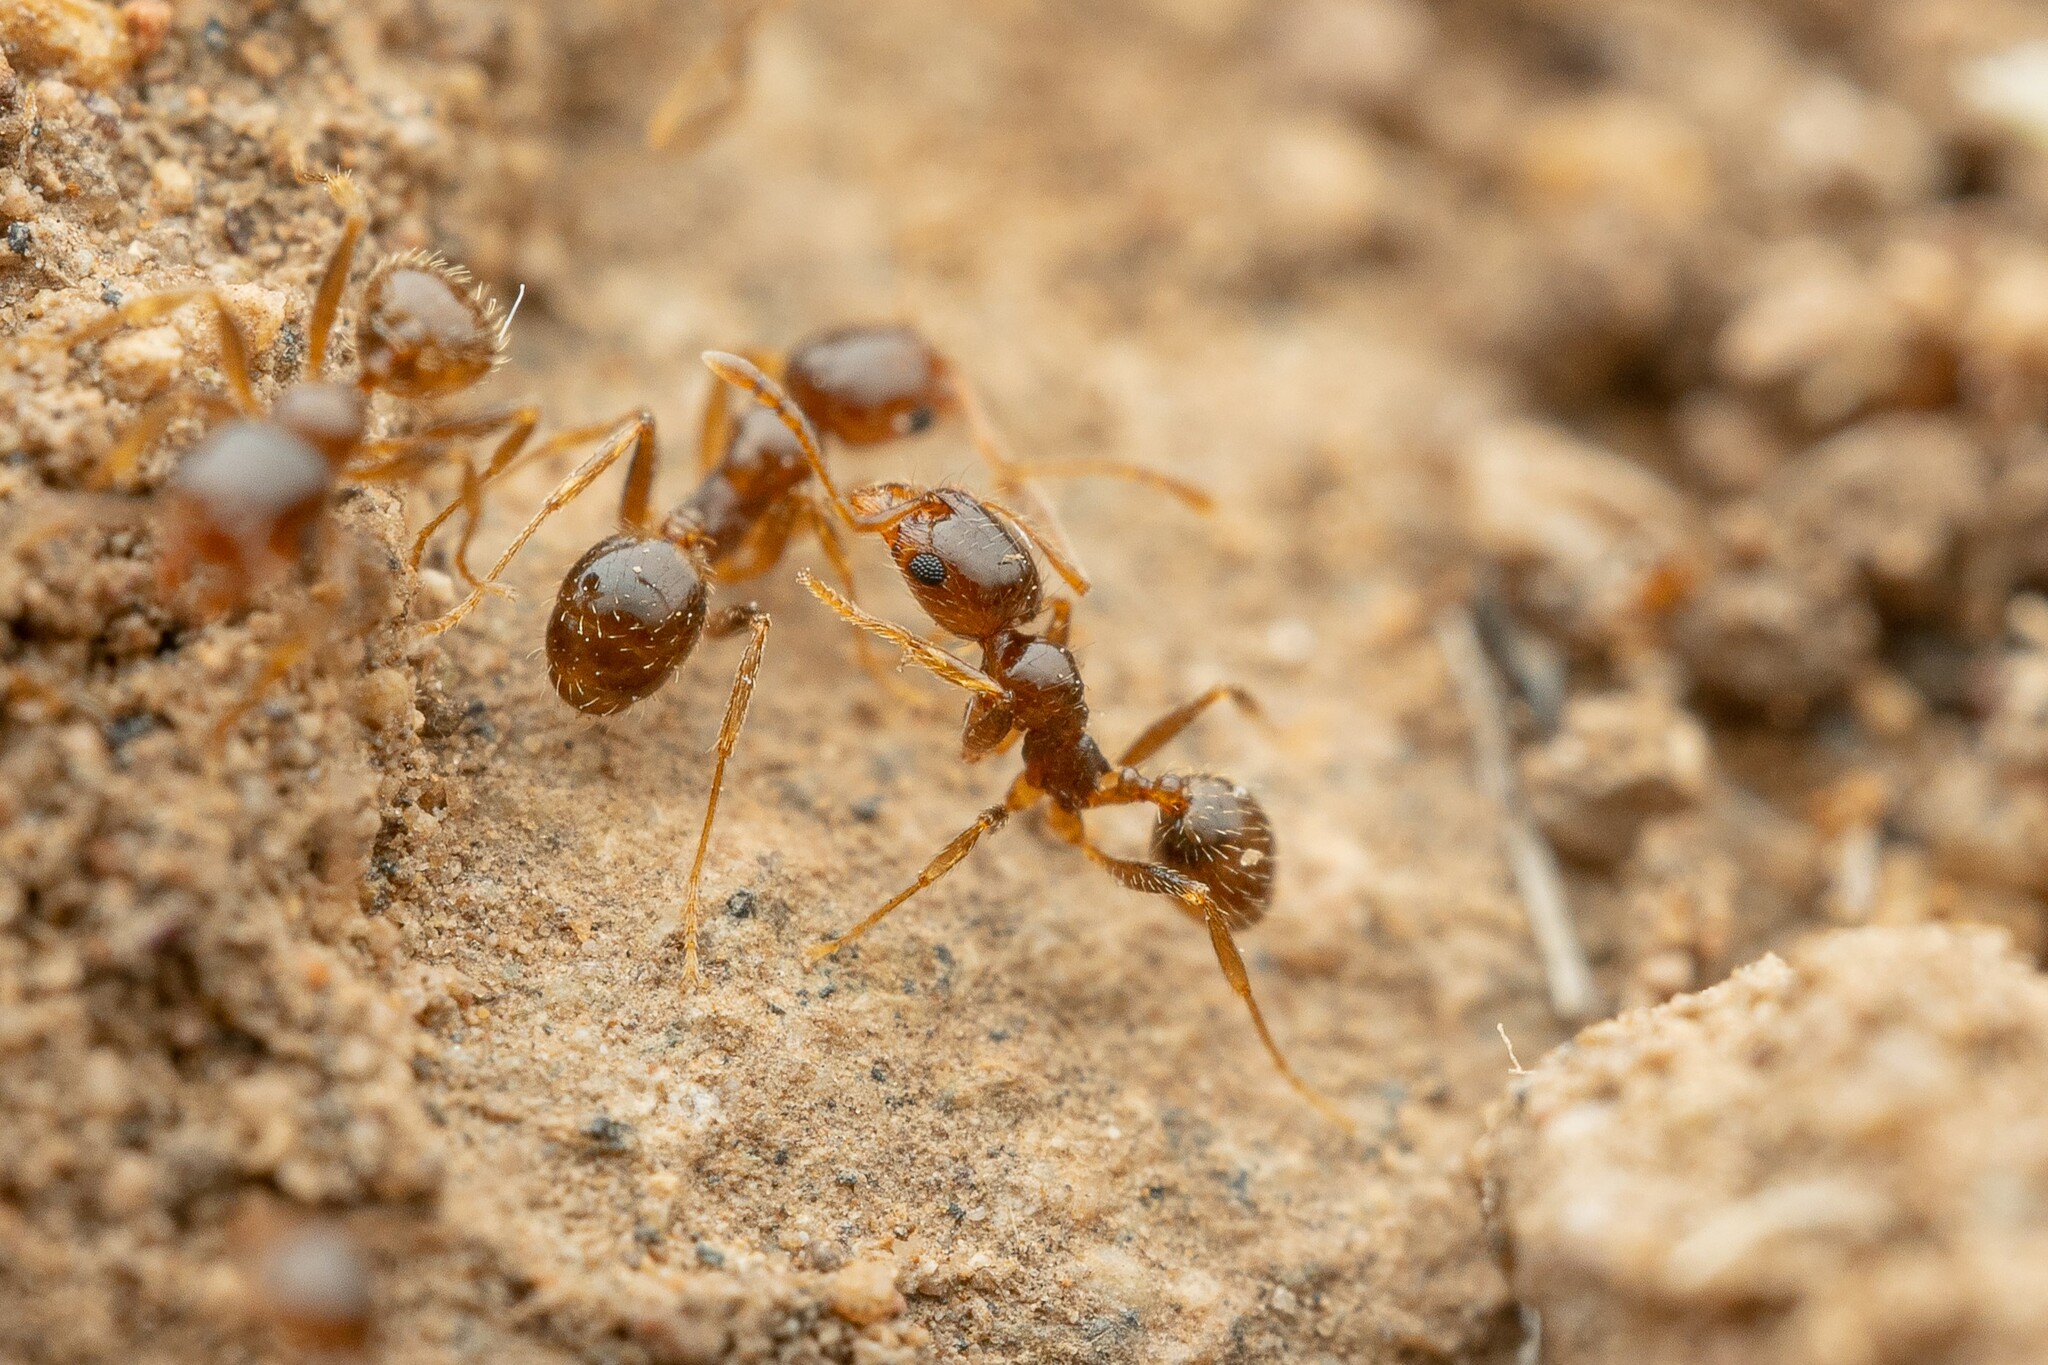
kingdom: Animalia
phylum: Arthropoda
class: Insecta
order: Hymenoptera
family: Formicidae
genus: Pheidole
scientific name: Pheidole tepicana
